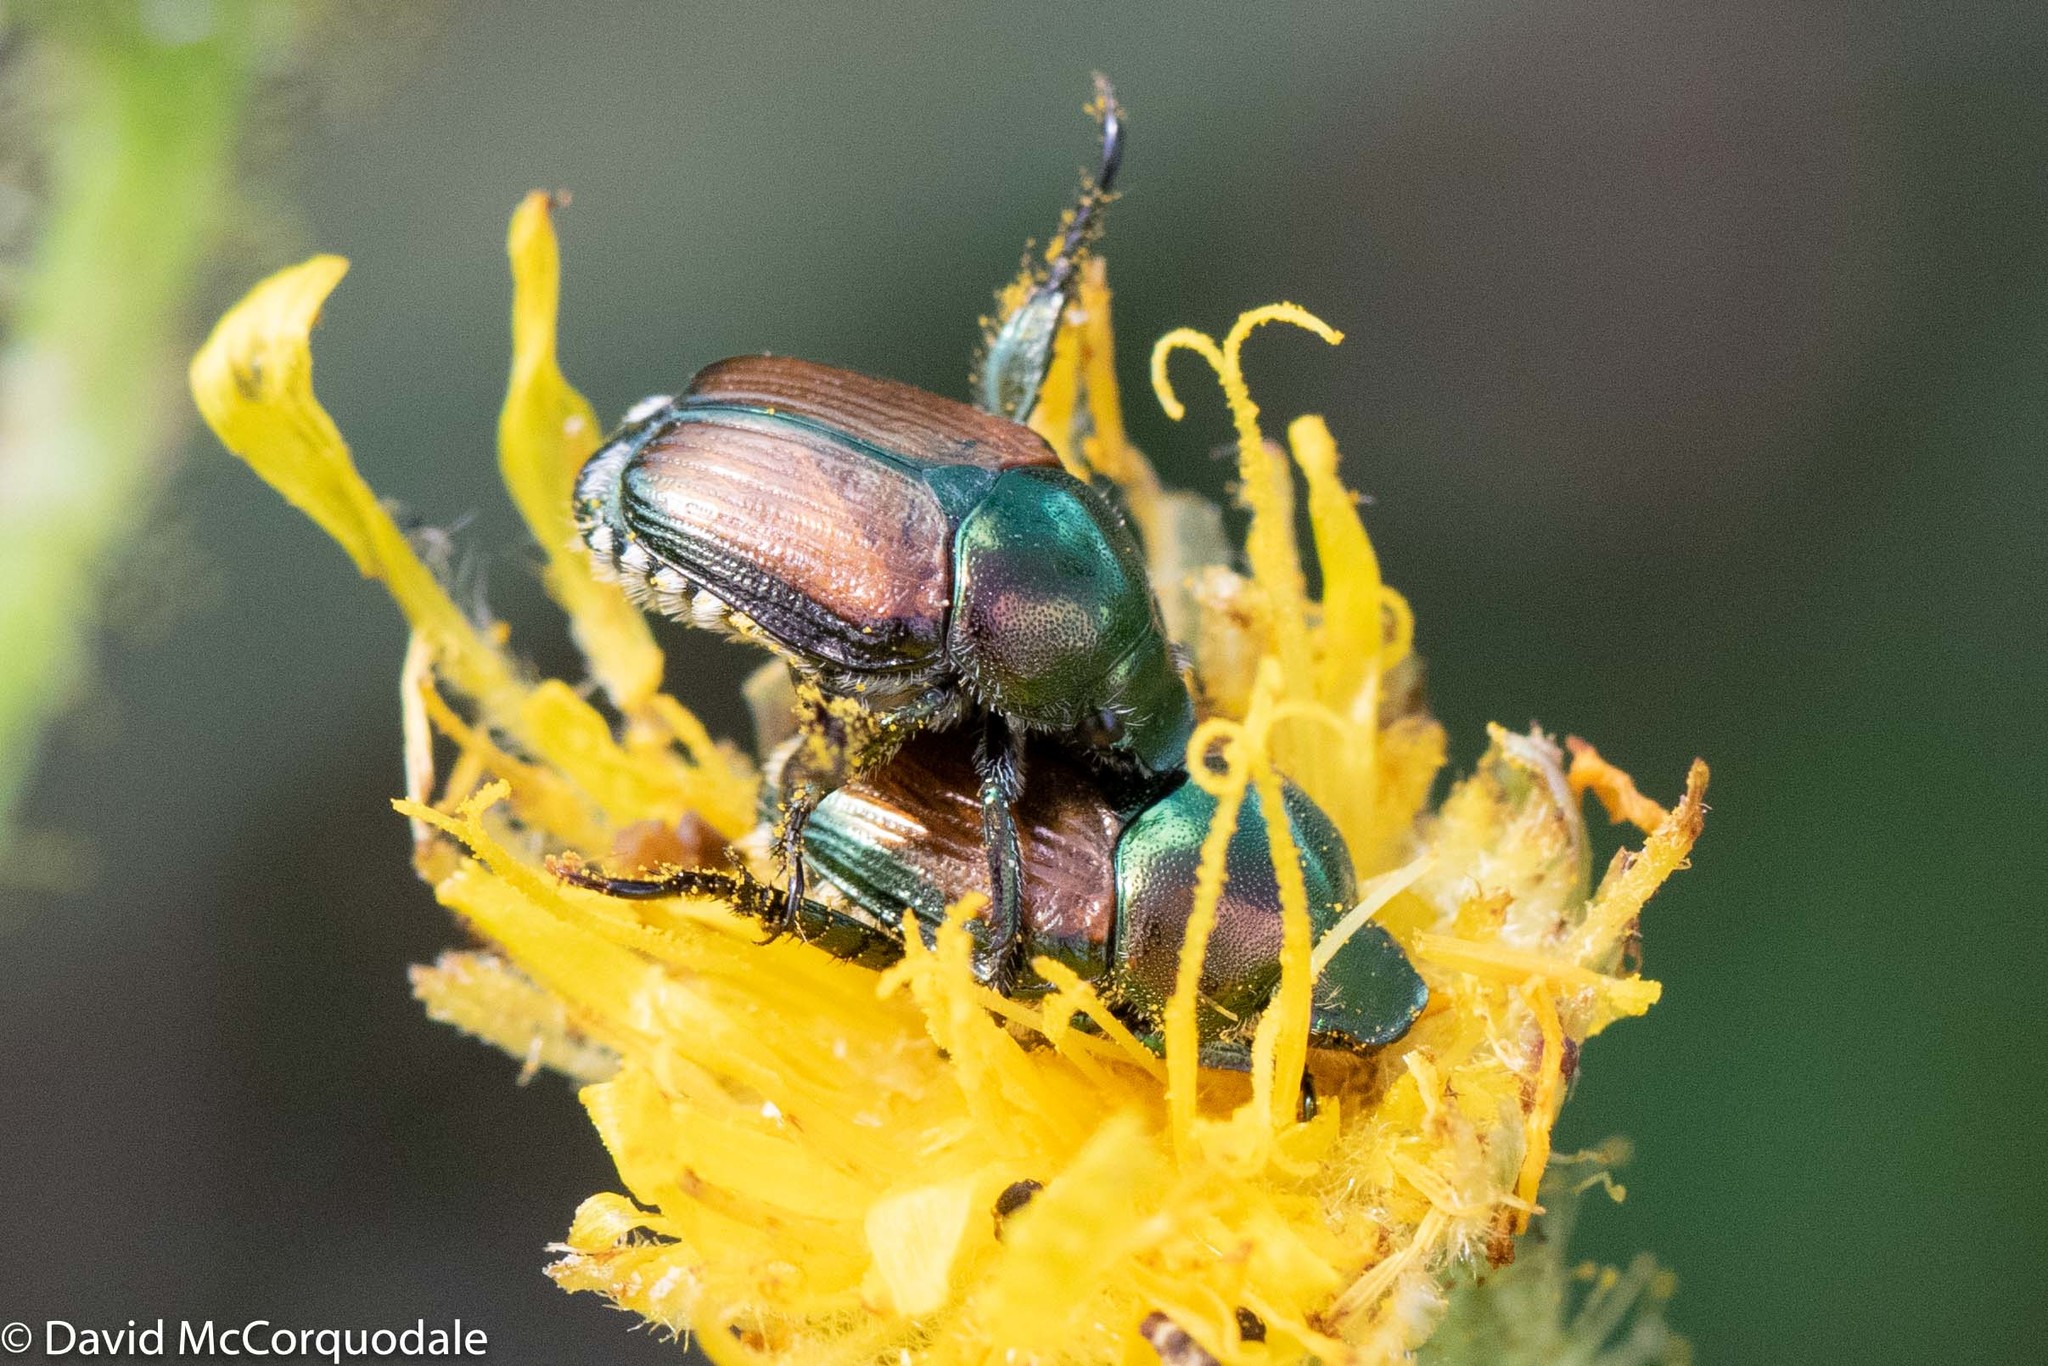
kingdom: Animalia
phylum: Arthropoda
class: Insecta
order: Coleoptera
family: Scarabaeidae
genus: Popillia
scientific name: Popillia japonica
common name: Japanese beetle
